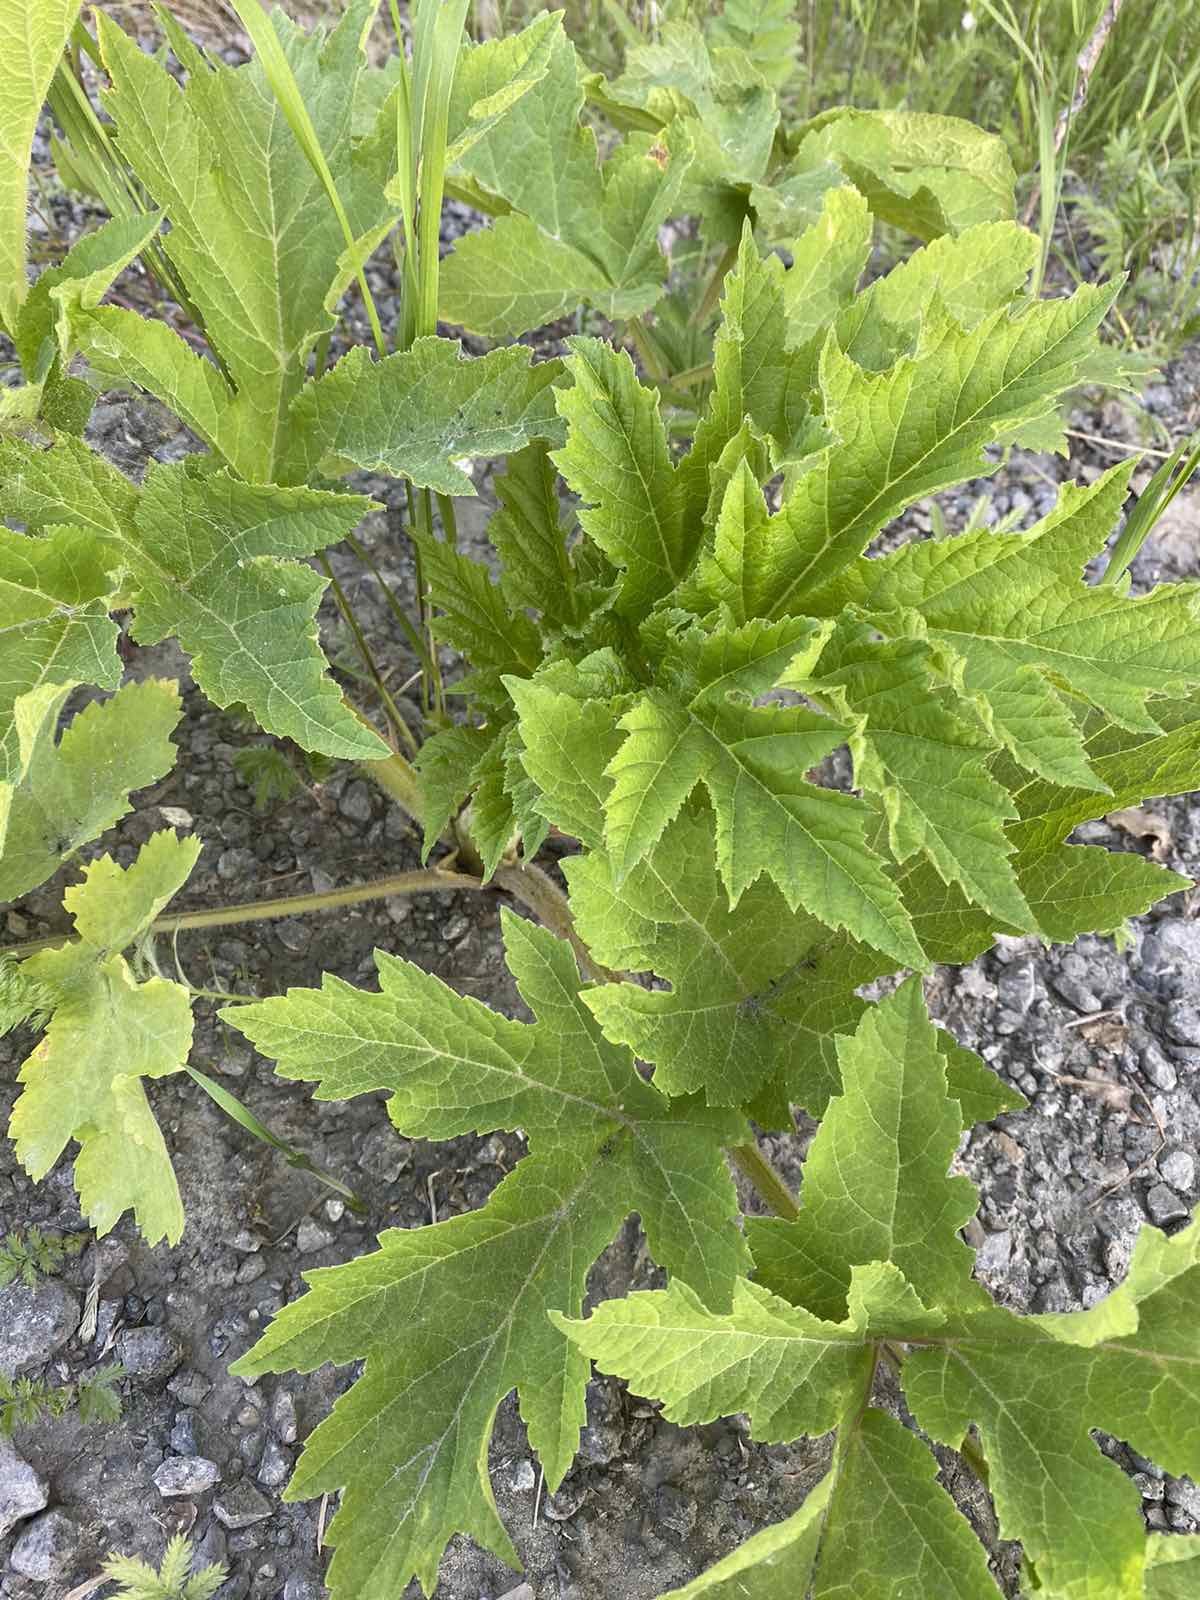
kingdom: Plantae
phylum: Tracheophyta
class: Magnoliopsida
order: Apiales
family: Apiaceae
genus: Heracleum
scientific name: Heracleum sphondylium
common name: Hogweed
